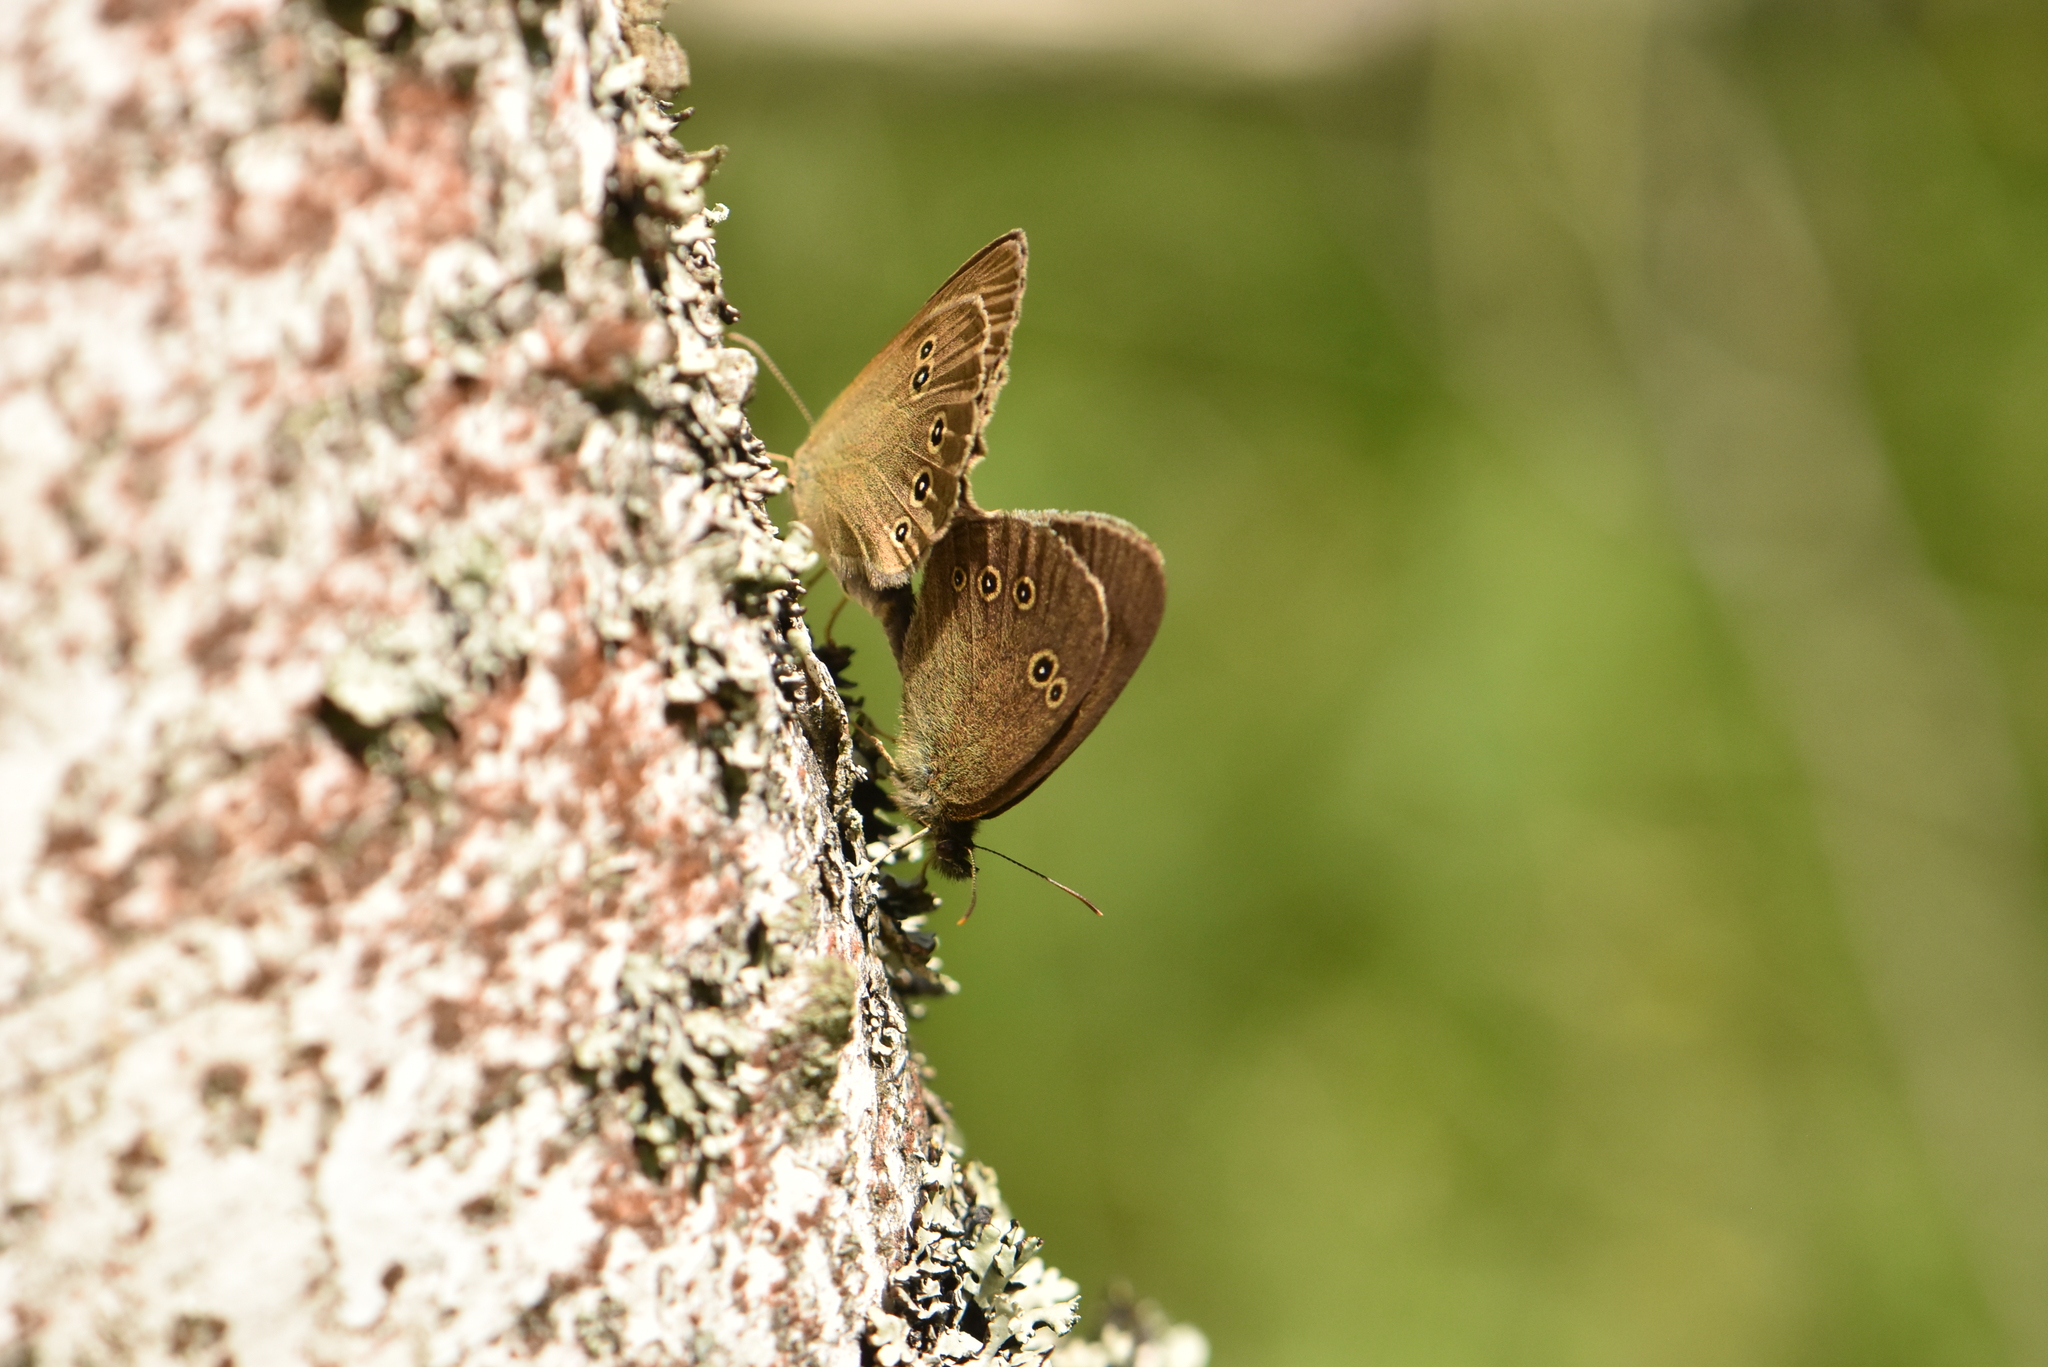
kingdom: Animalia
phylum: Arthropoda
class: Insecta
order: Lepidoptera
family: Nymphalidae
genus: Aphantopus
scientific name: Aphantopus hyperantus
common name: Ringlet
